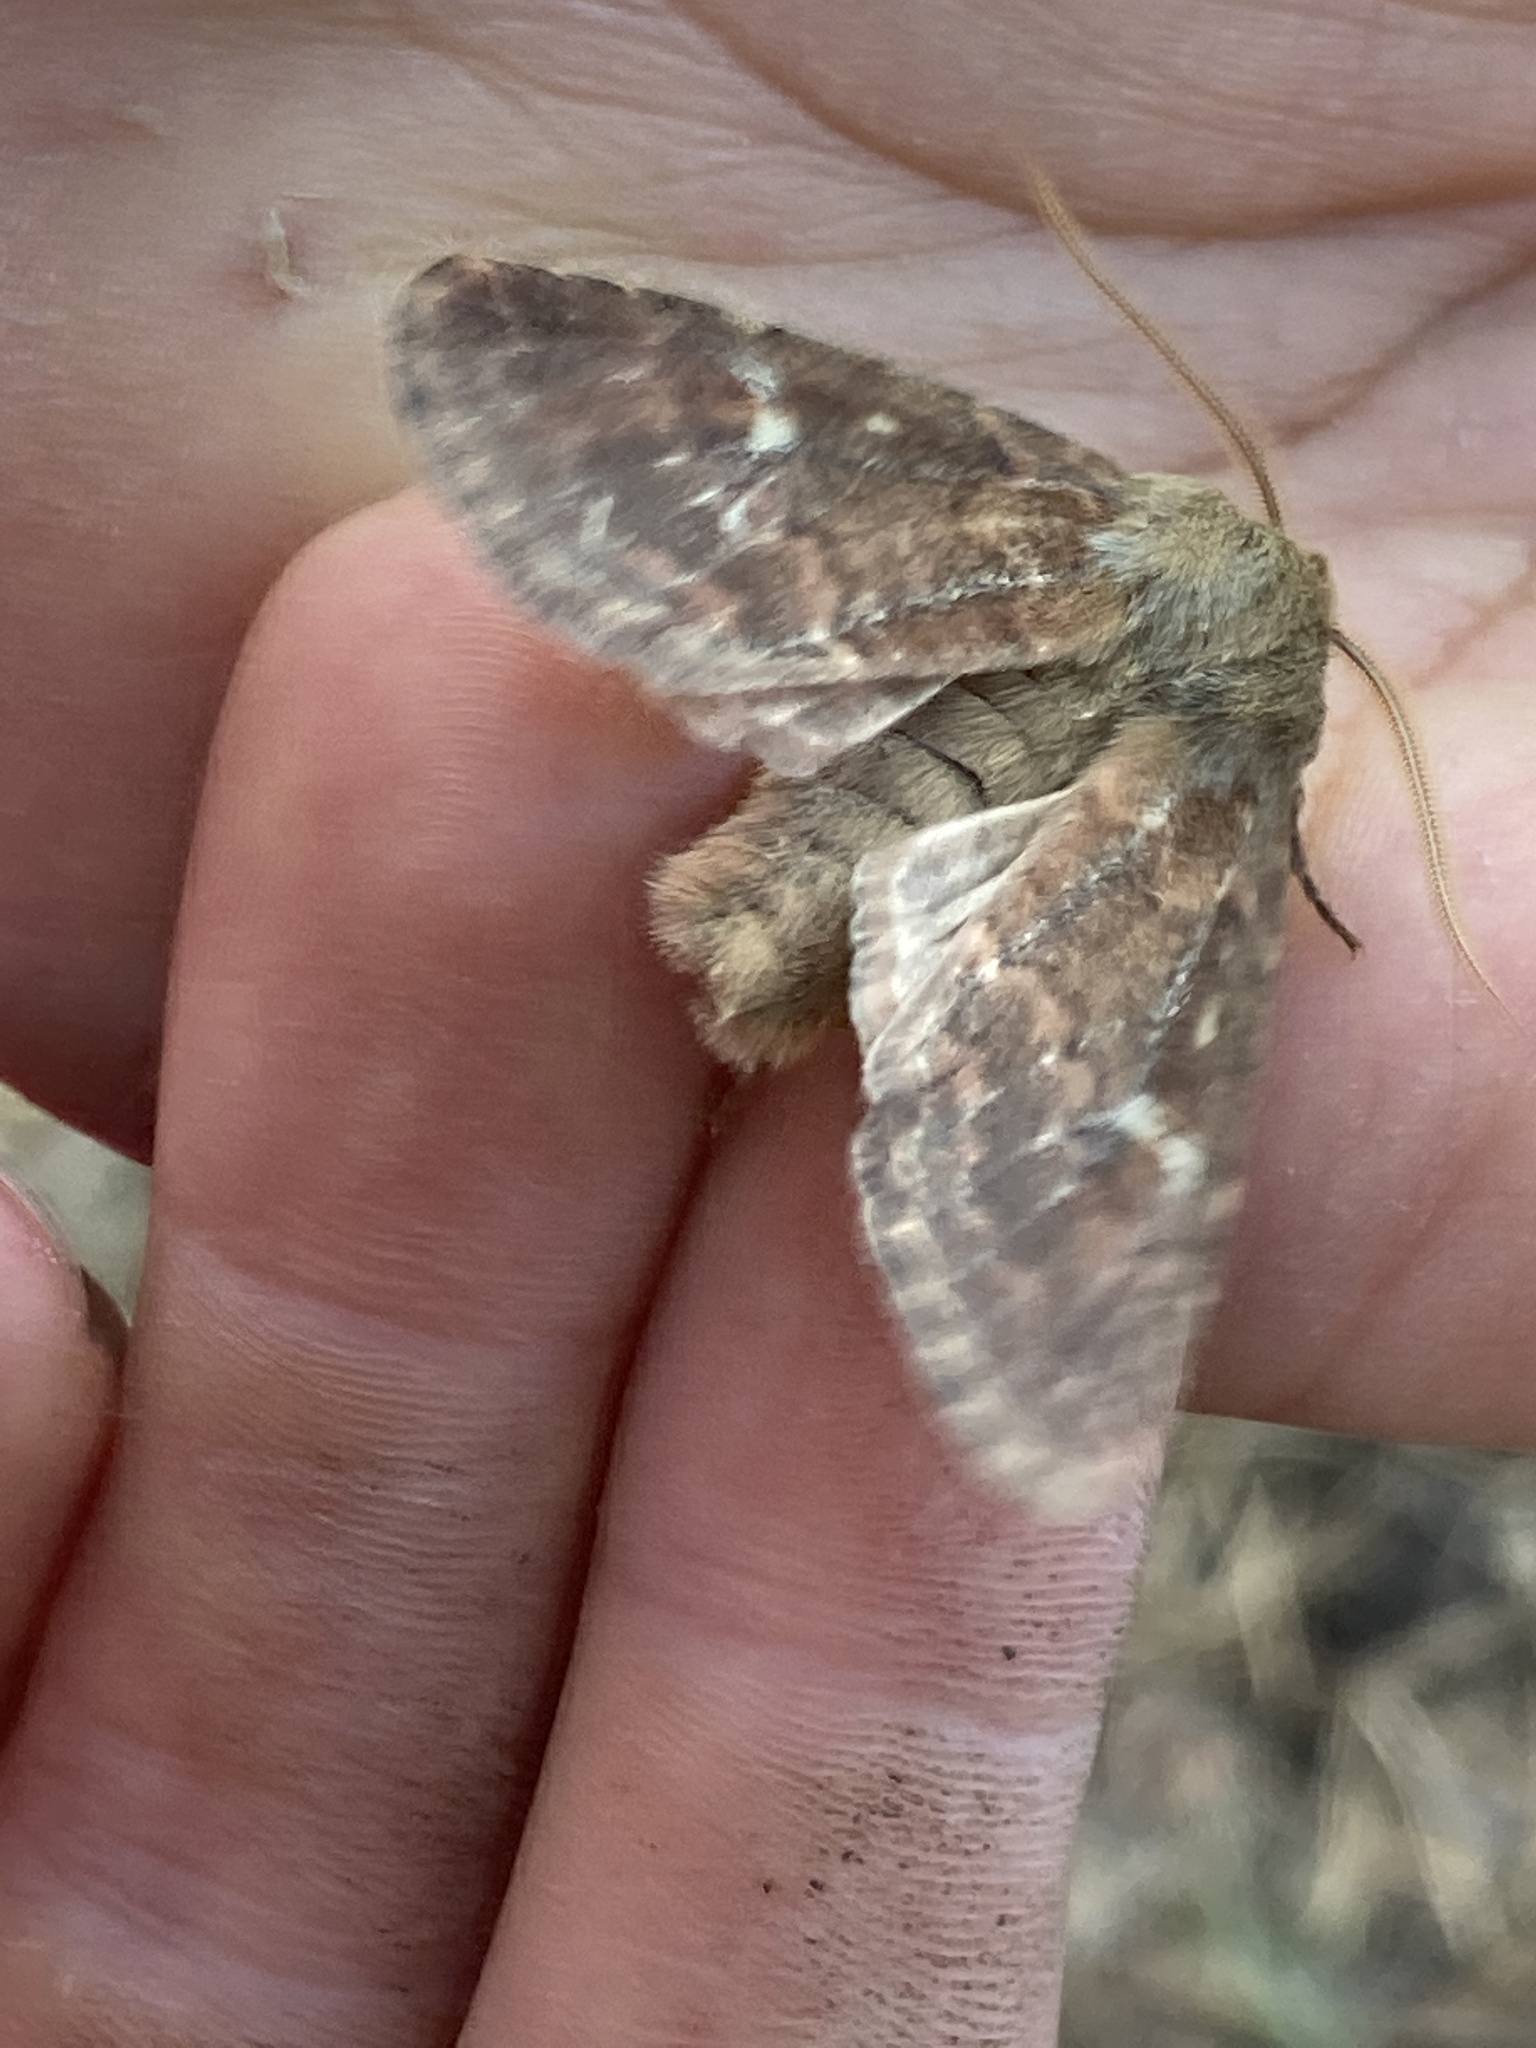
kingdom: Animalia
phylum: Arthropoda
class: Insecta
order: Lepidoptera
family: Noctuidae
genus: Dasypolia
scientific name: Dasypolia templi
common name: Brindled ochre
